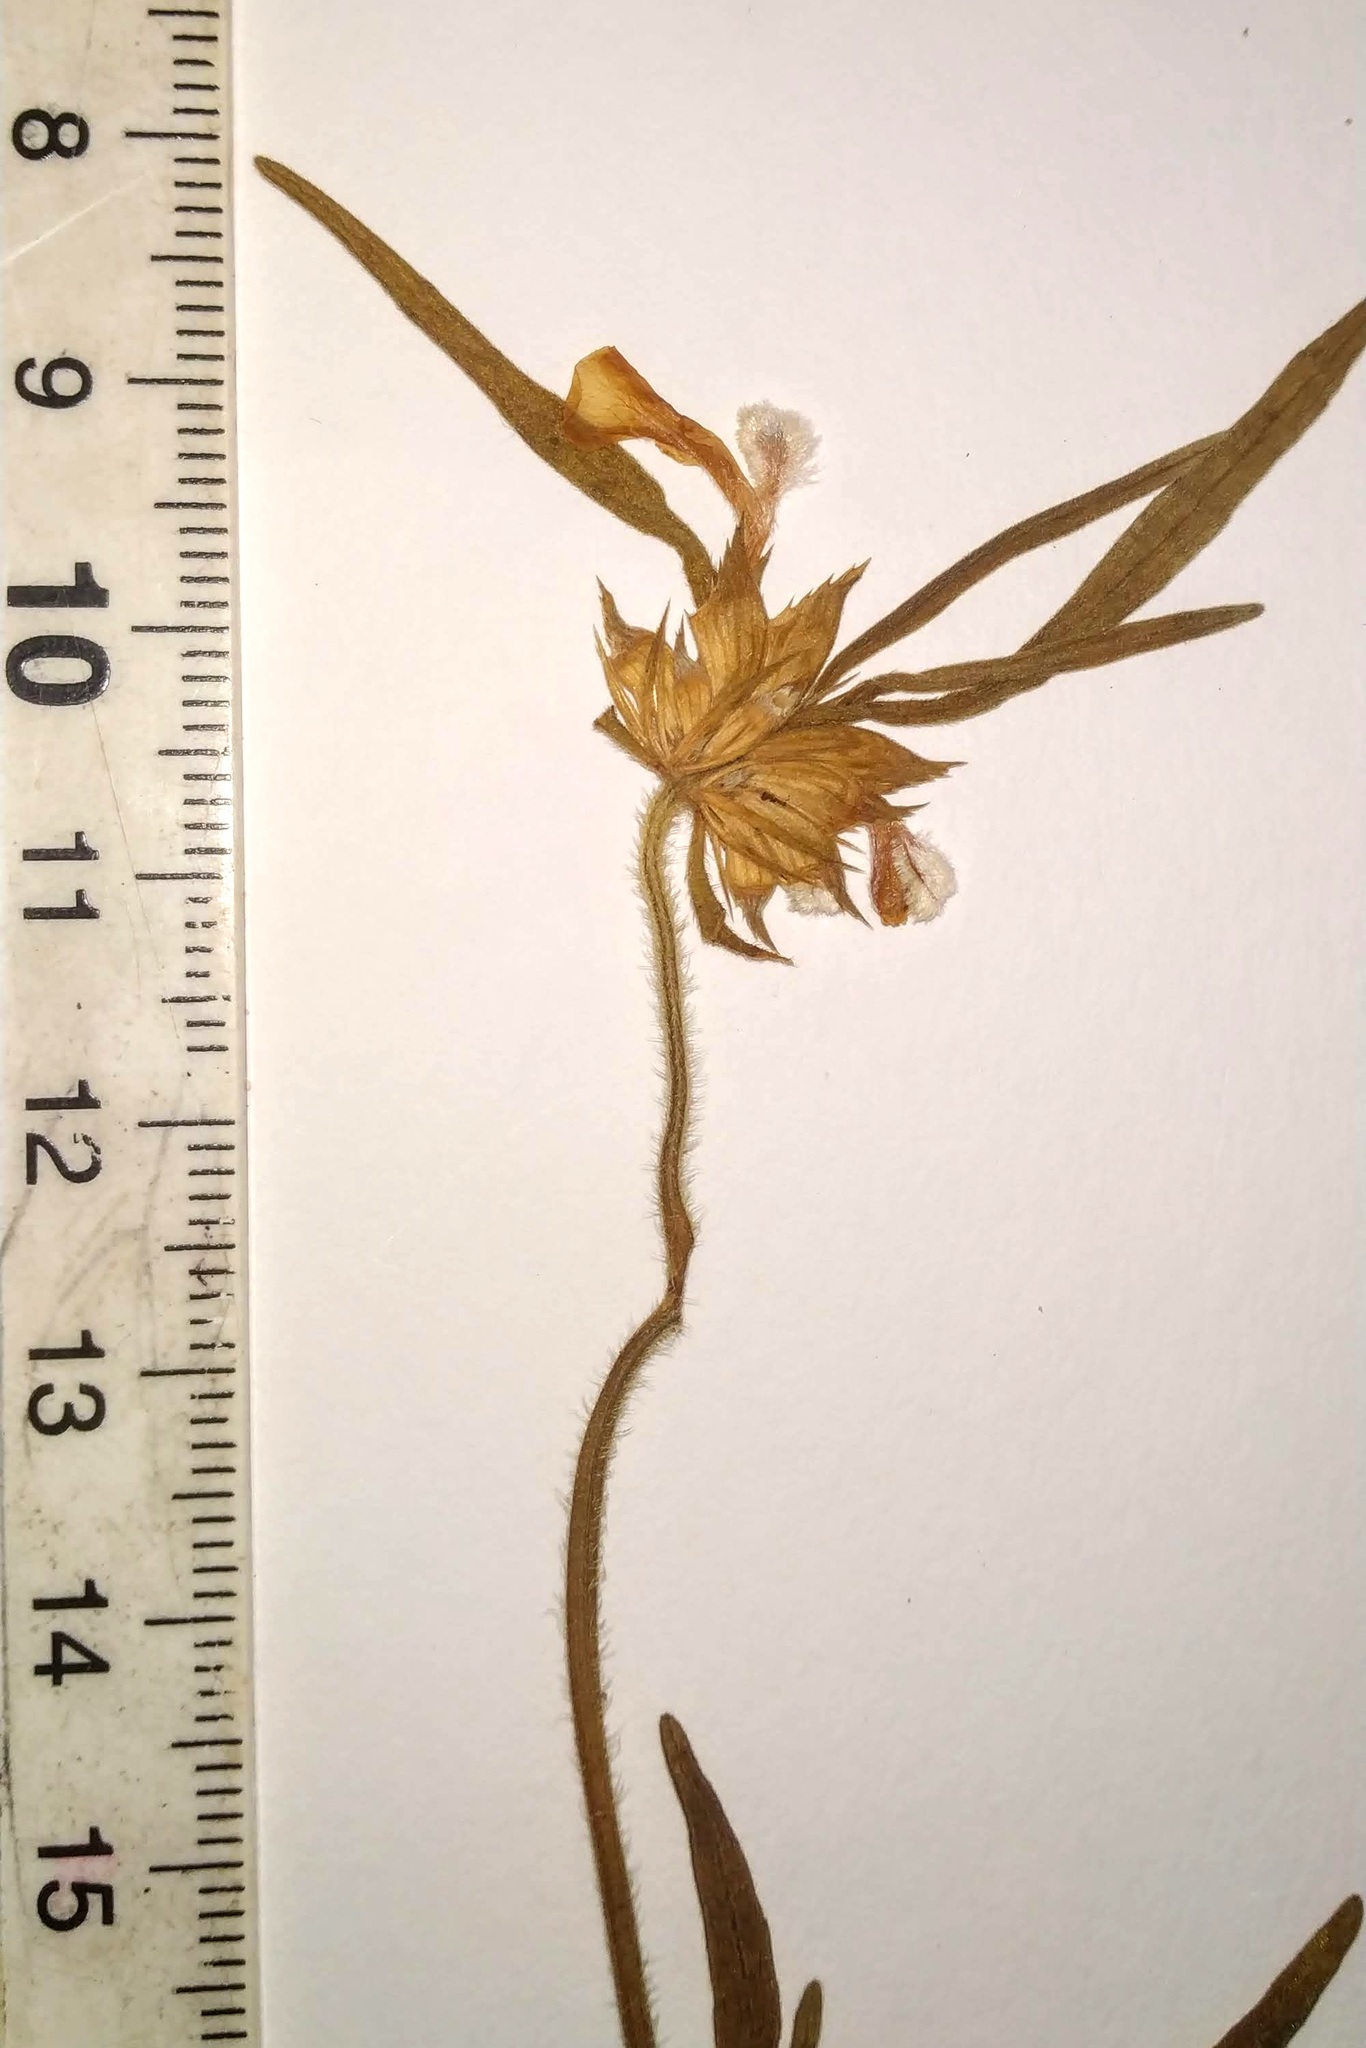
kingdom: Plantae
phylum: Tracheophyta
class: Magnoliopsida
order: Lamiales
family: Lamiaceae
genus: Leucas
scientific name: Leucas lavandulifolia
